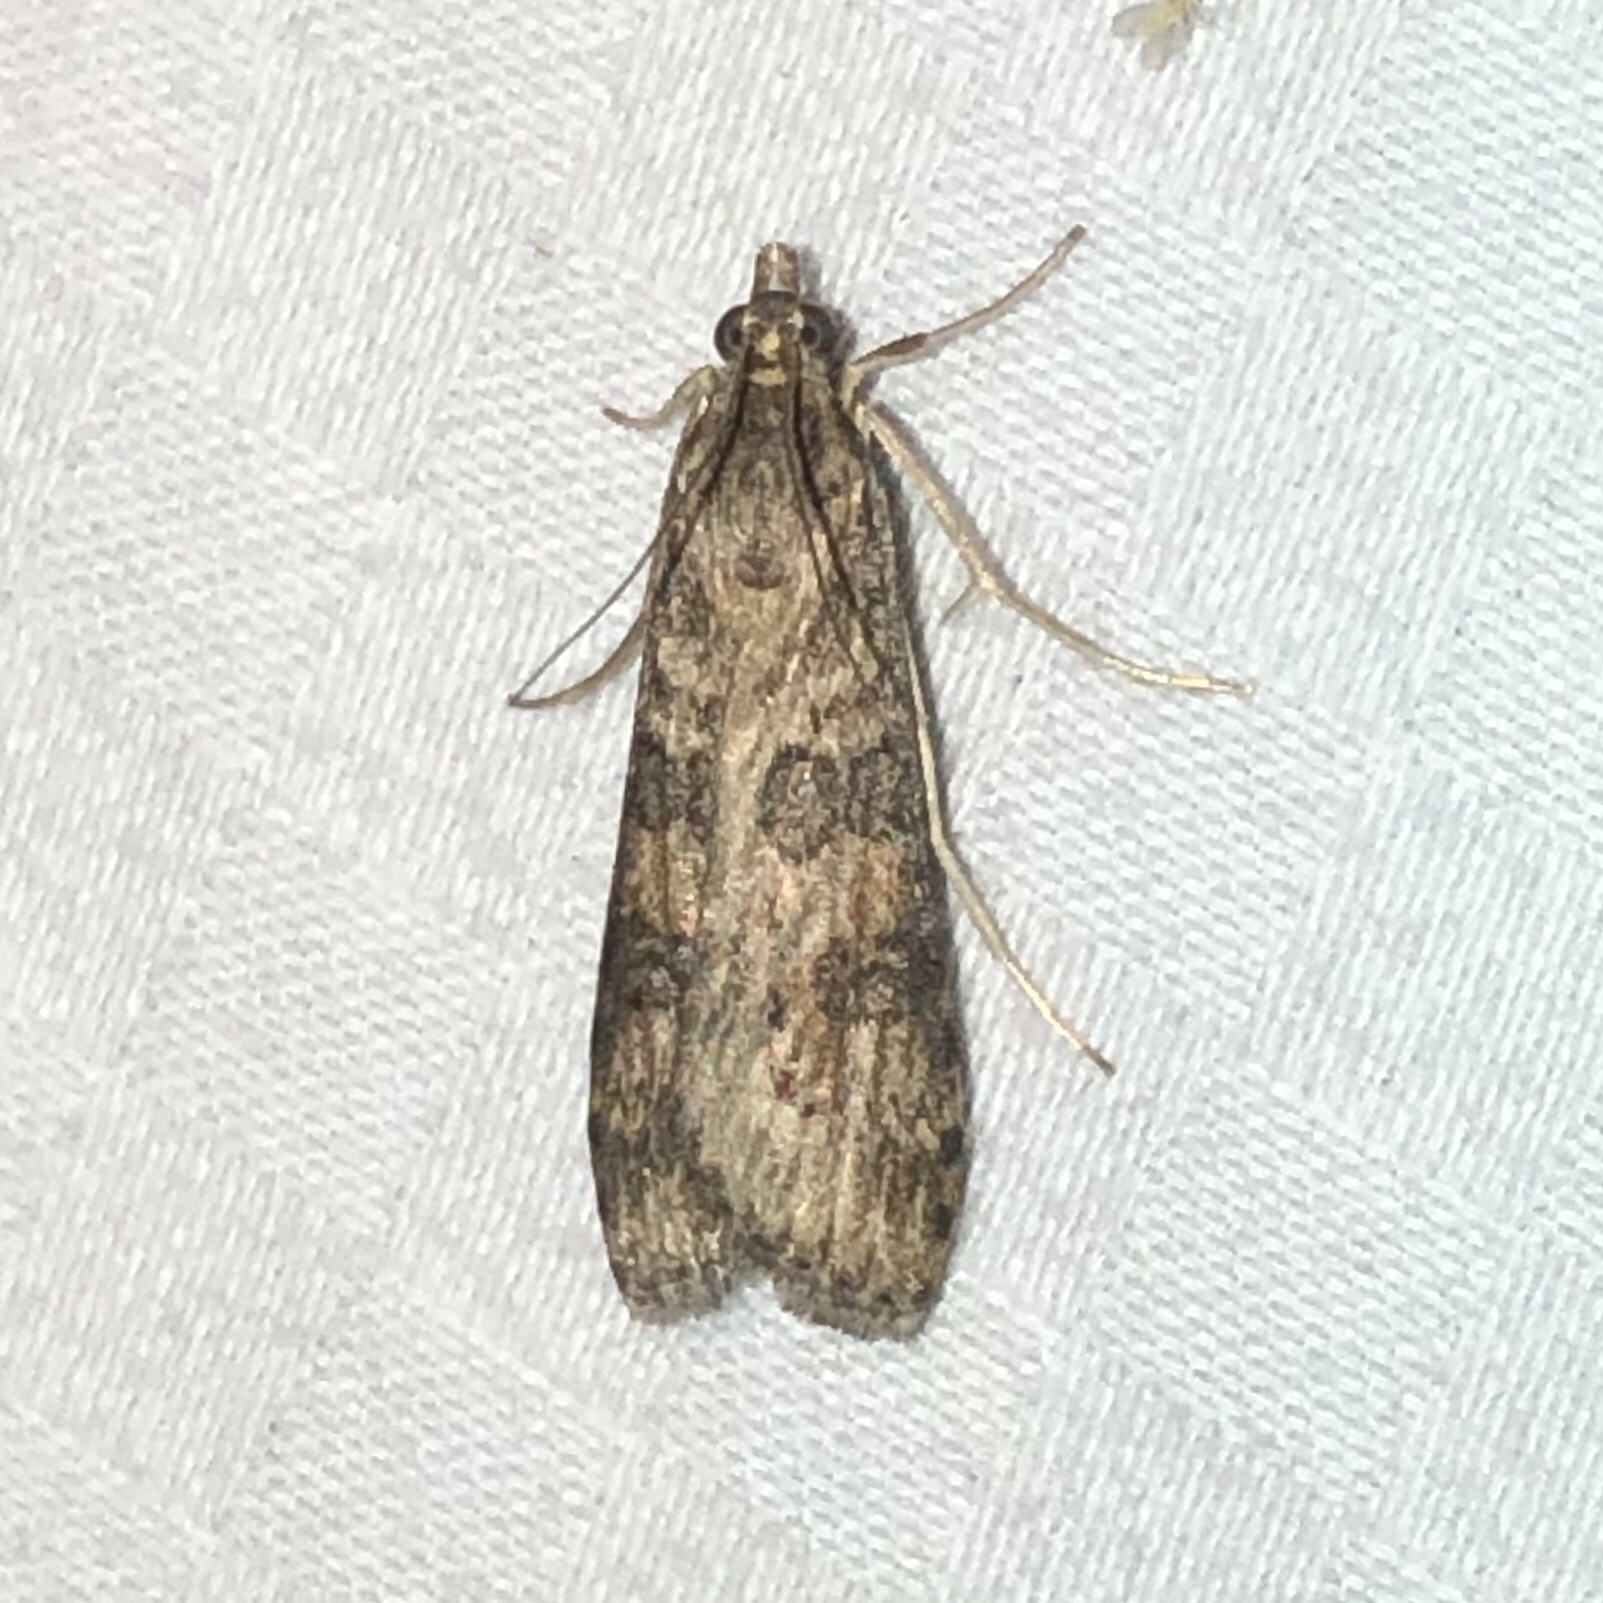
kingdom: Animalia
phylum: Arthropoda
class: Insecta
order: Lepidoptera
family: Crambidae
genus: Nomophila
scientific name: Nomophila nearctica
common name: American rush veneer
